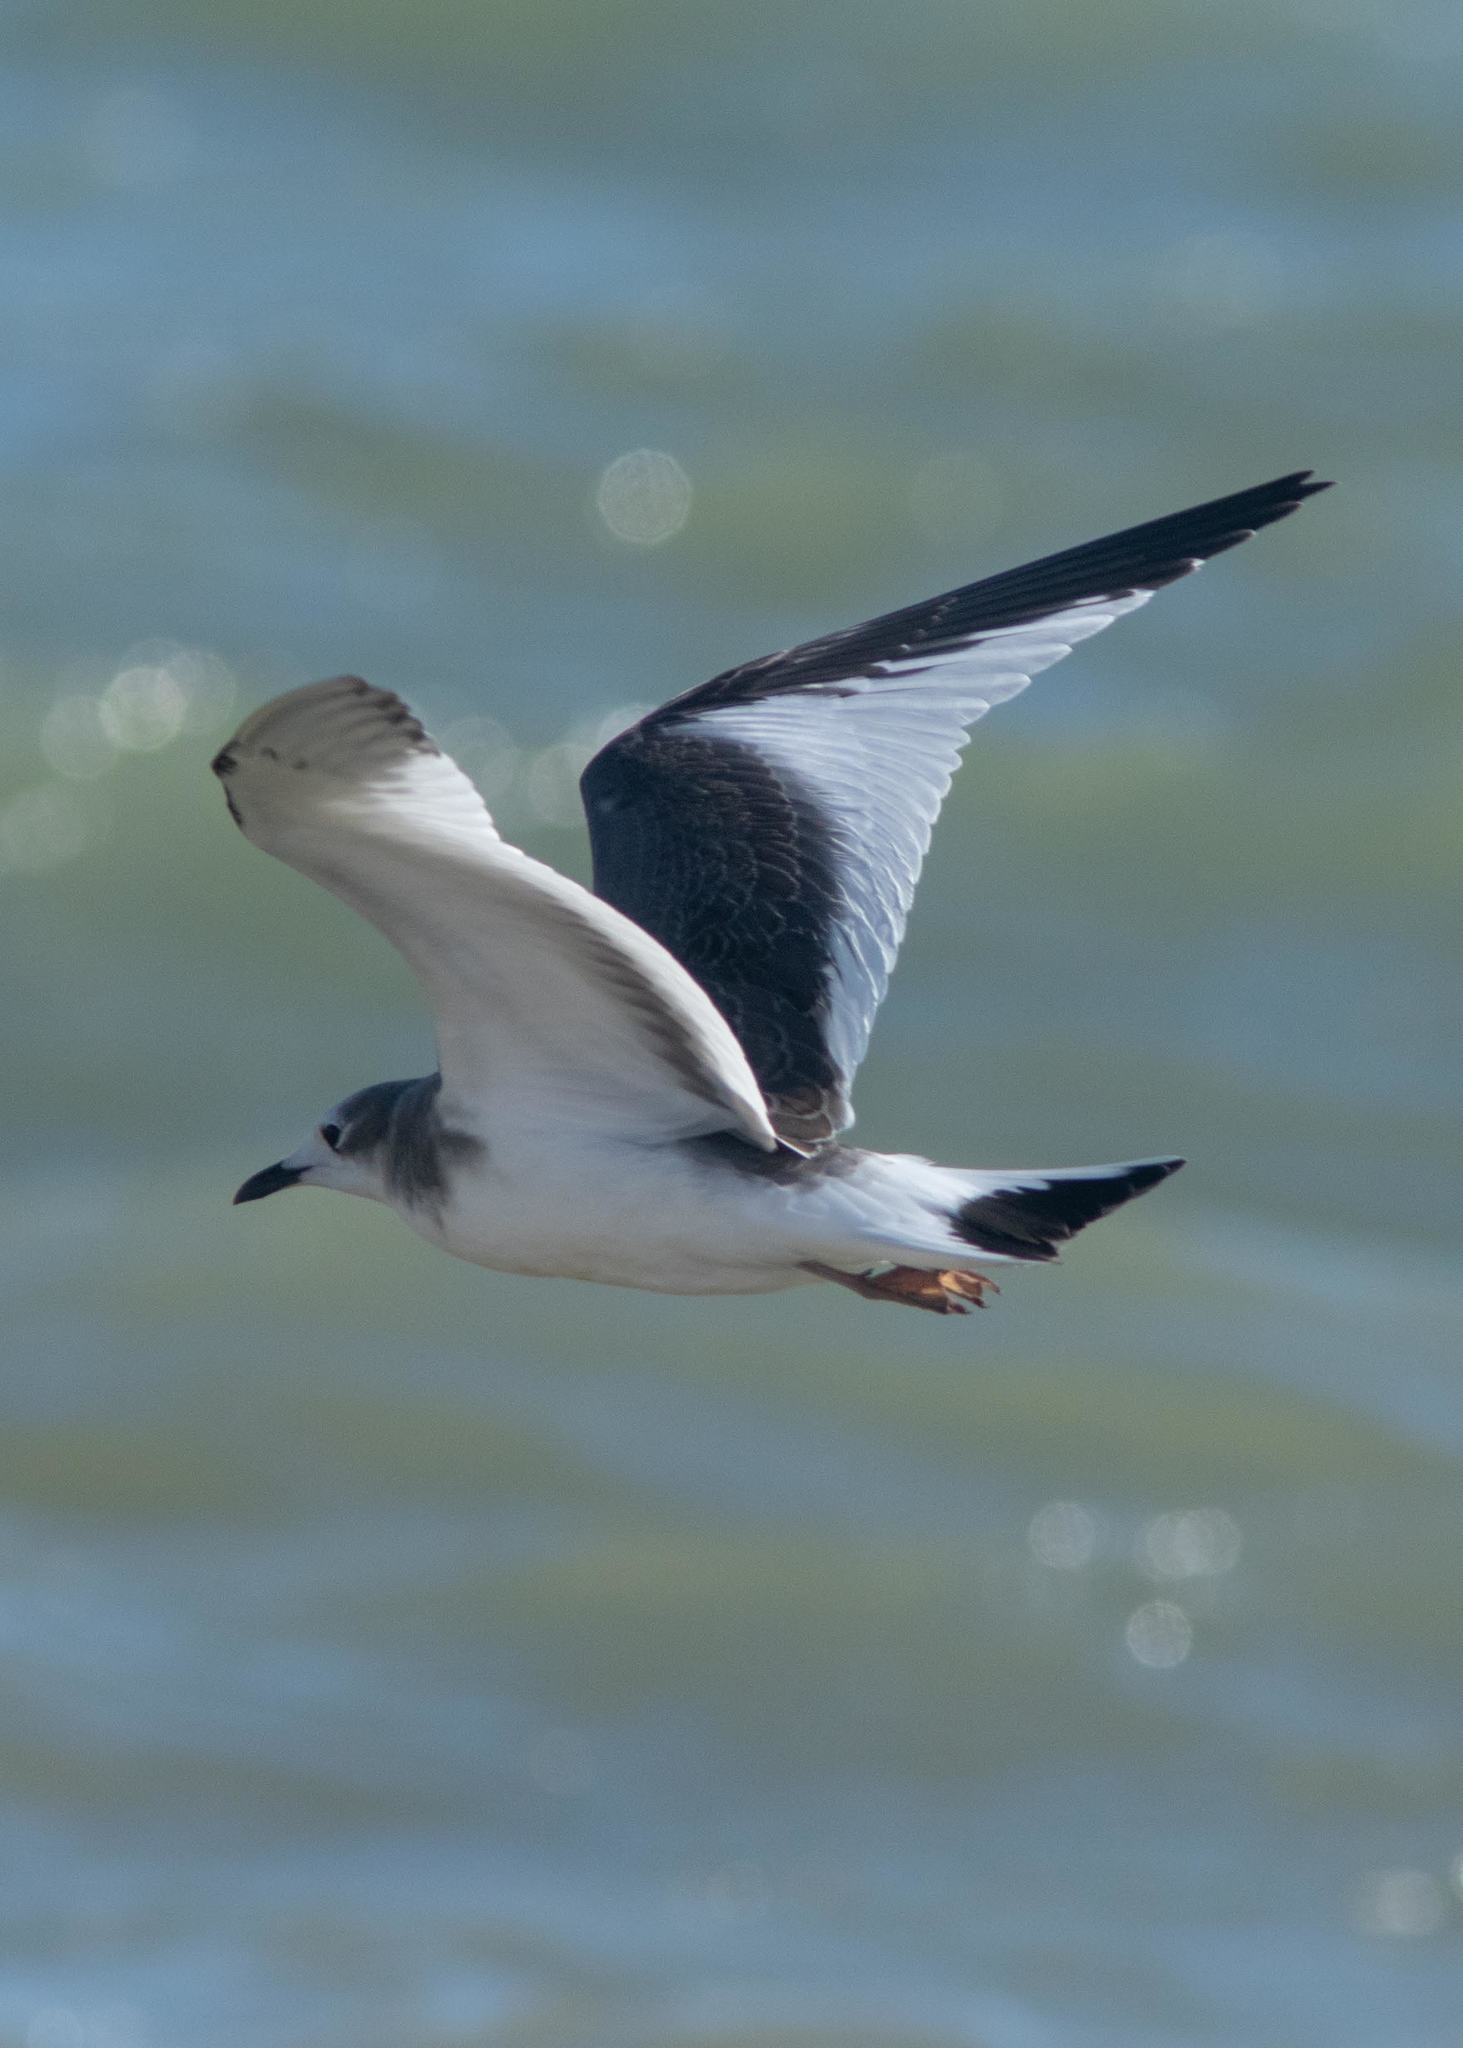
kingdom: Animalia
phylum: Chordata
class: Aves
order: Charadriiformes
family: Laridae
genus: Xema
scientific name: Xema sabini
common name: Sabine's gull
